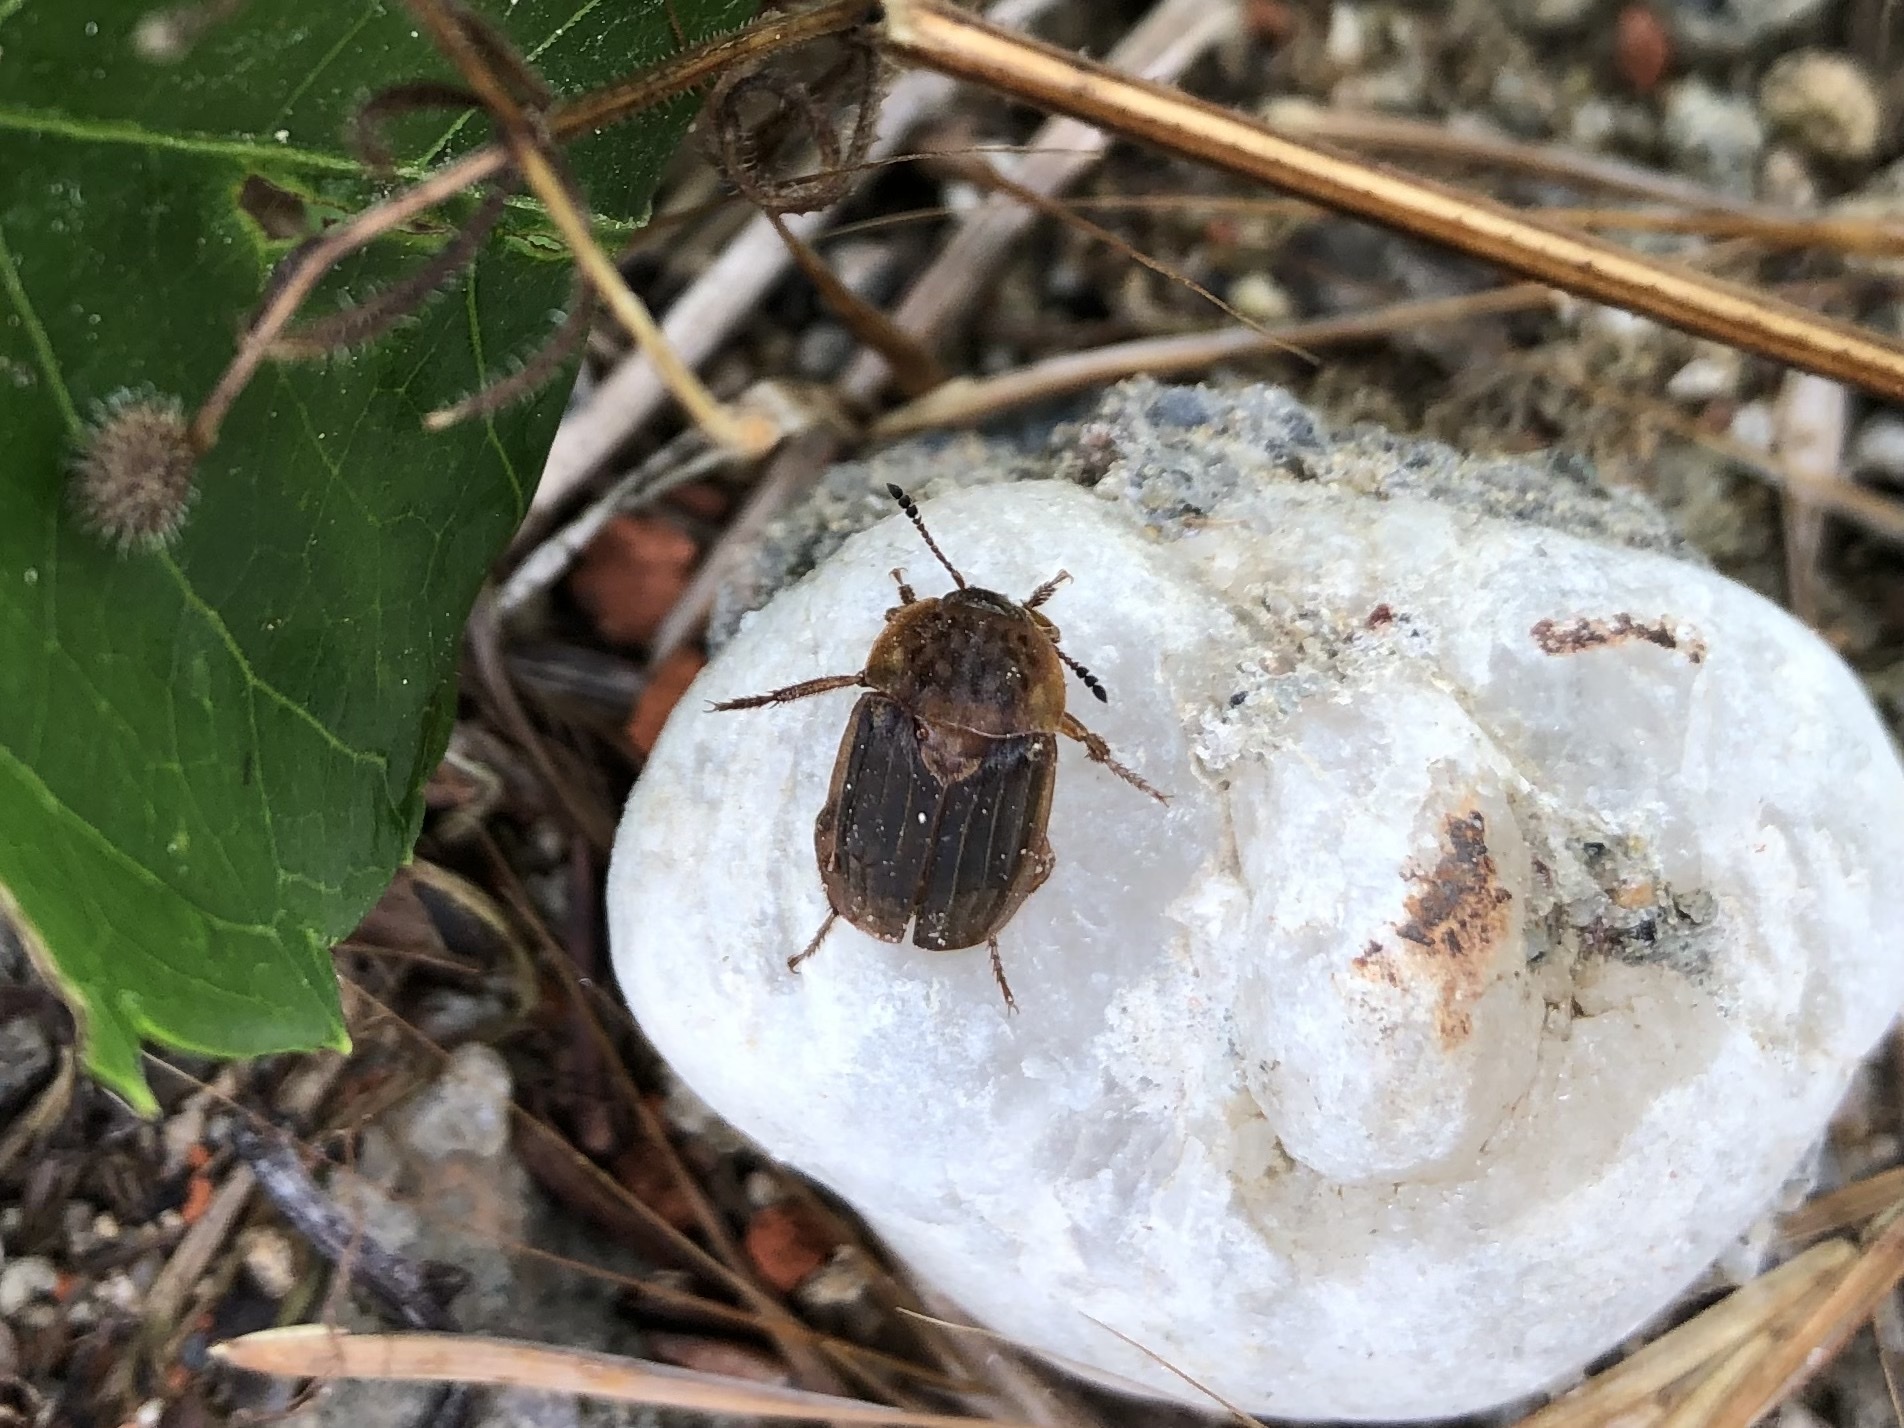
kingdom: Animalia
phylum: Arthropoda
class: Insecta
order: Coleoptera
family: Staphylinidae
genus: Thanatophilus
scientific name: Thanatophilus sinuatus
